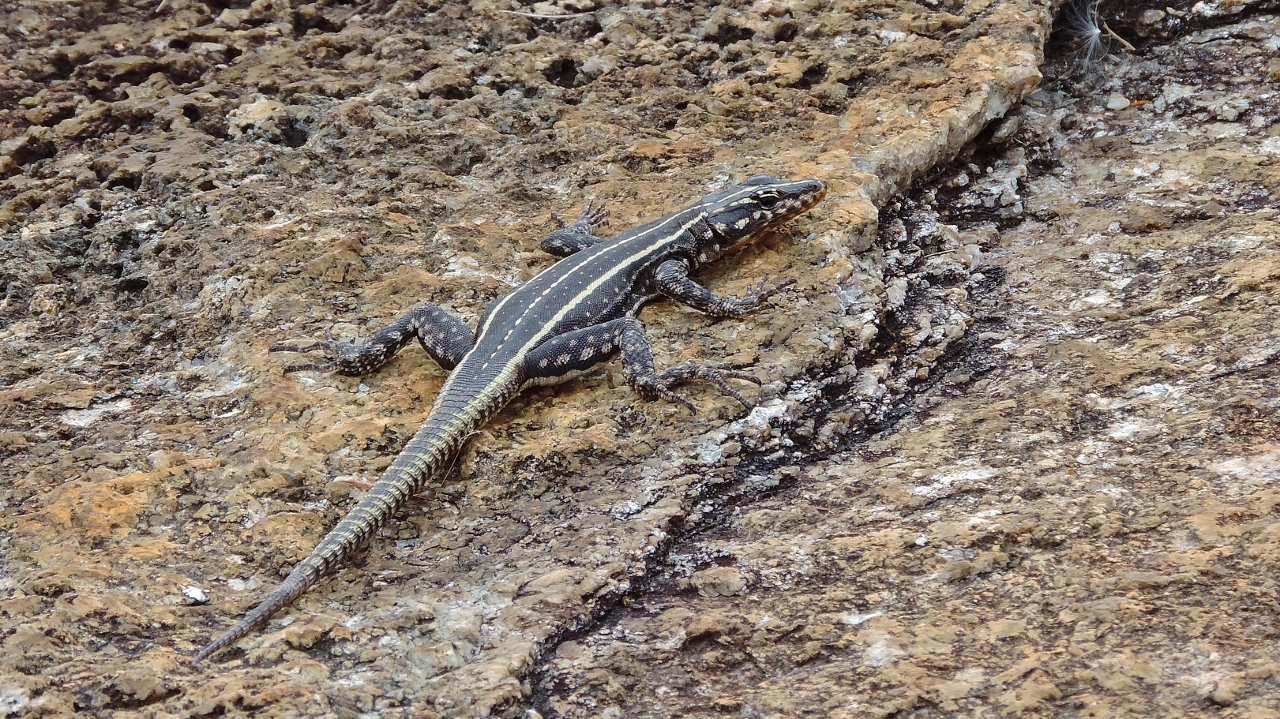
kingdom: Animalia
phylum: Chordata
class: Squamata
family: Cordylidae
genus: Platysaurus
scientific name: Platysaurus intermedius
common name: Common flat lizard
